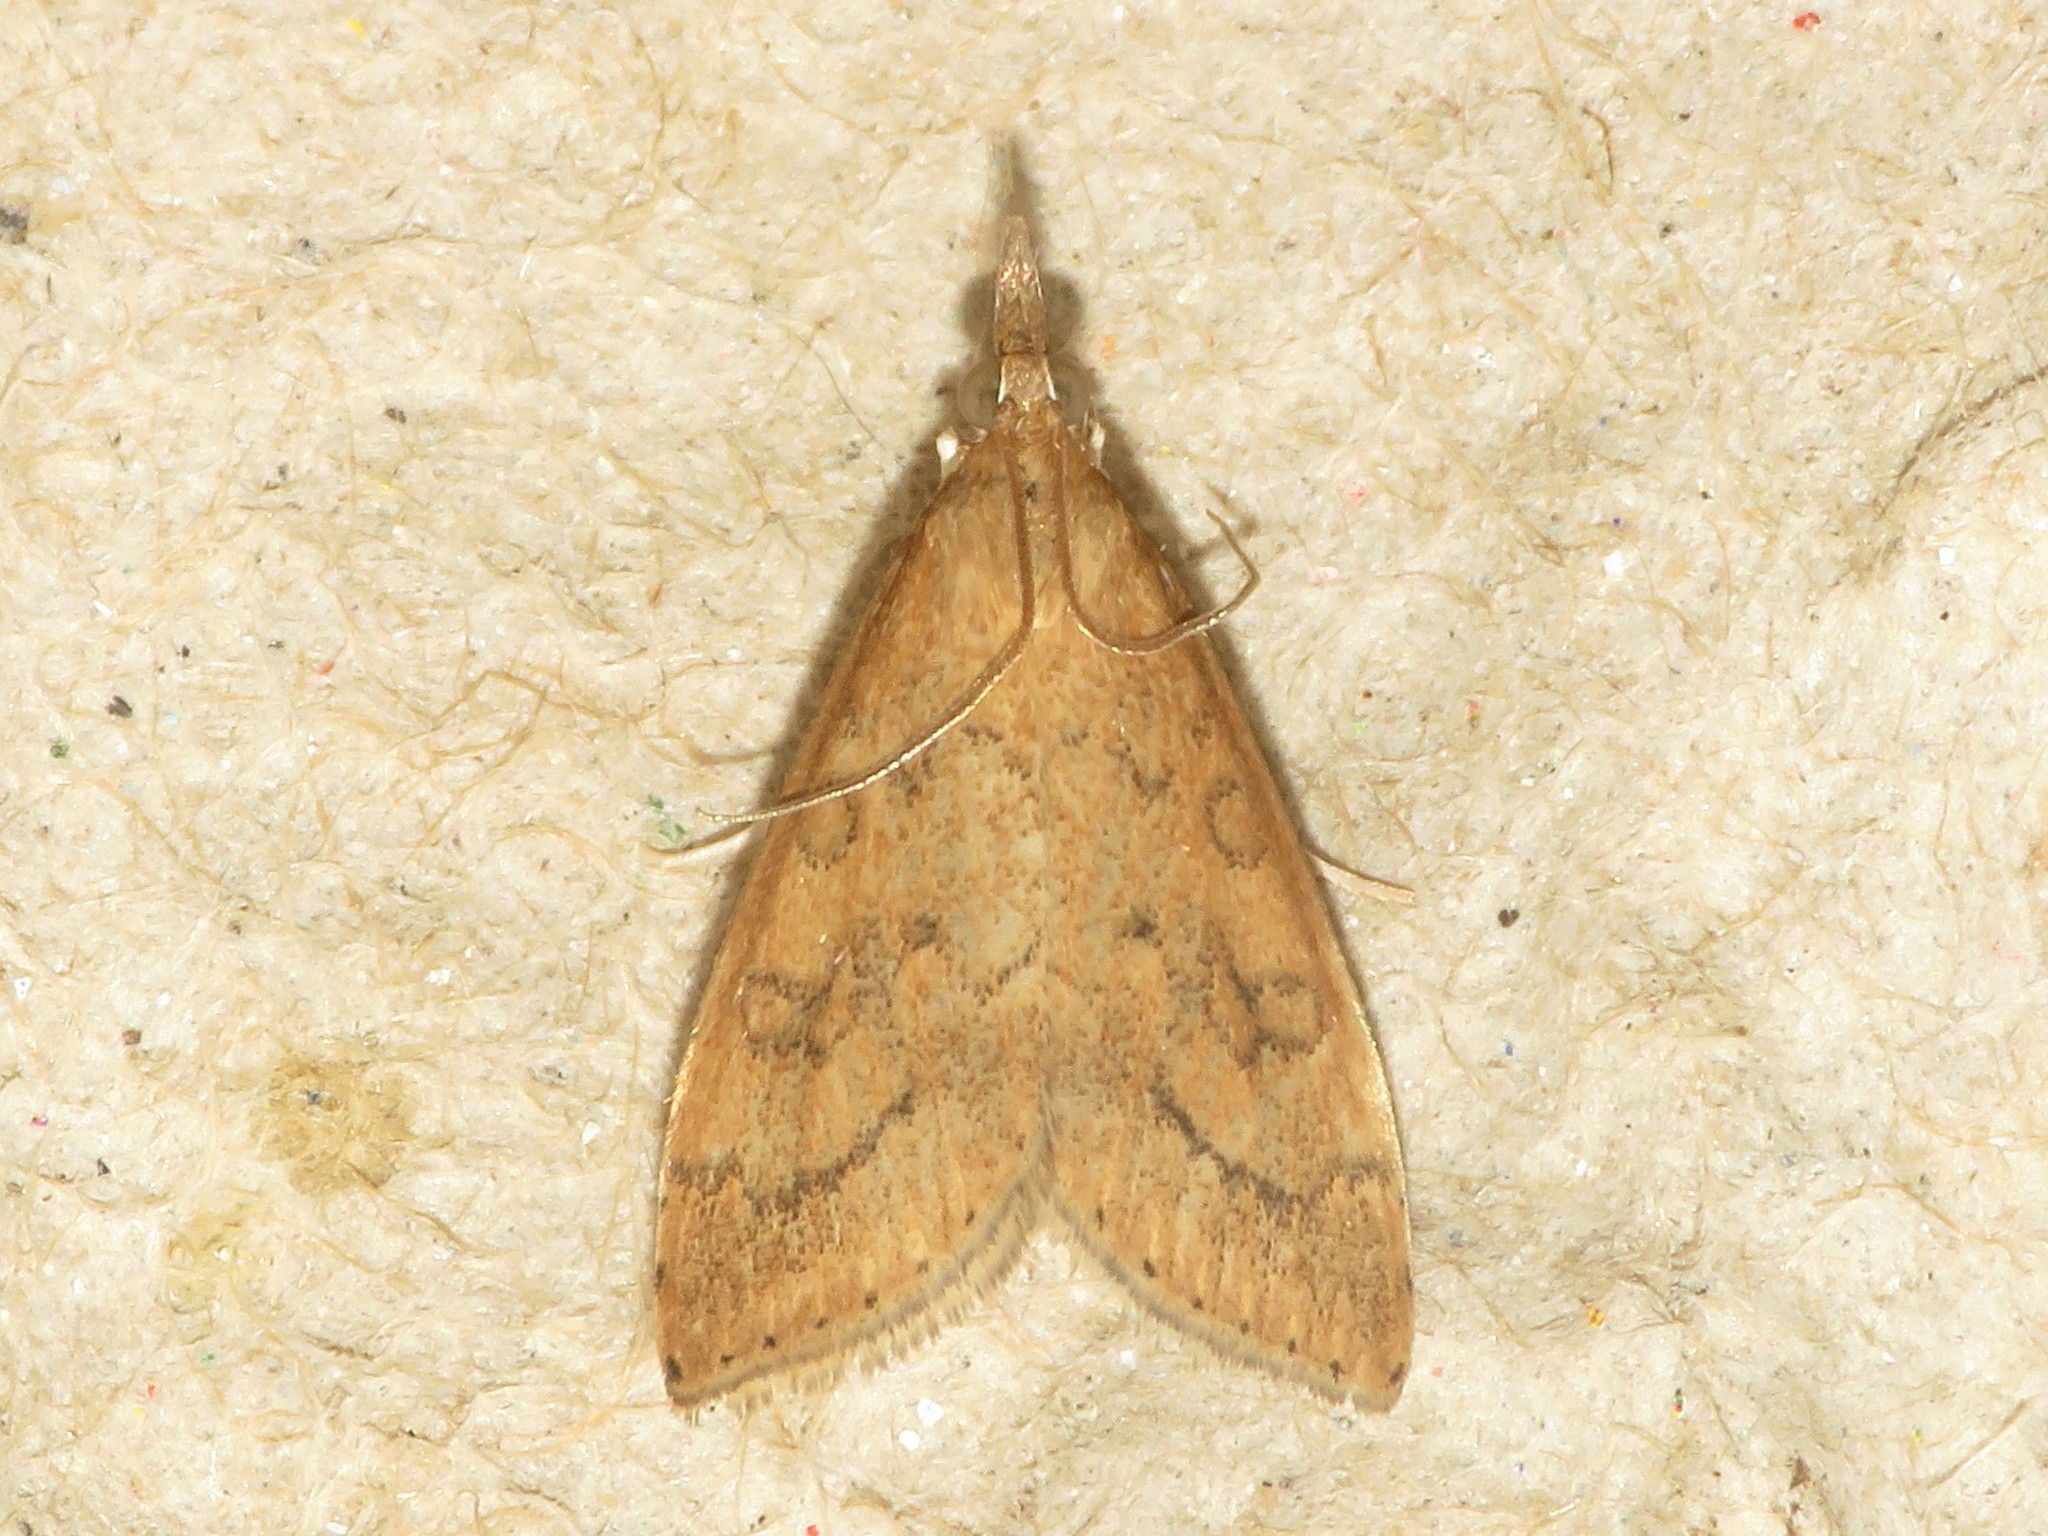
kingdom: Animalia
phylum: Arthropoda
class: Insecta
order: Lepidoptera
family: Crambidae
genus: Udea
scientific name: Udea rubigalis
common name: Celery leaftier moth
